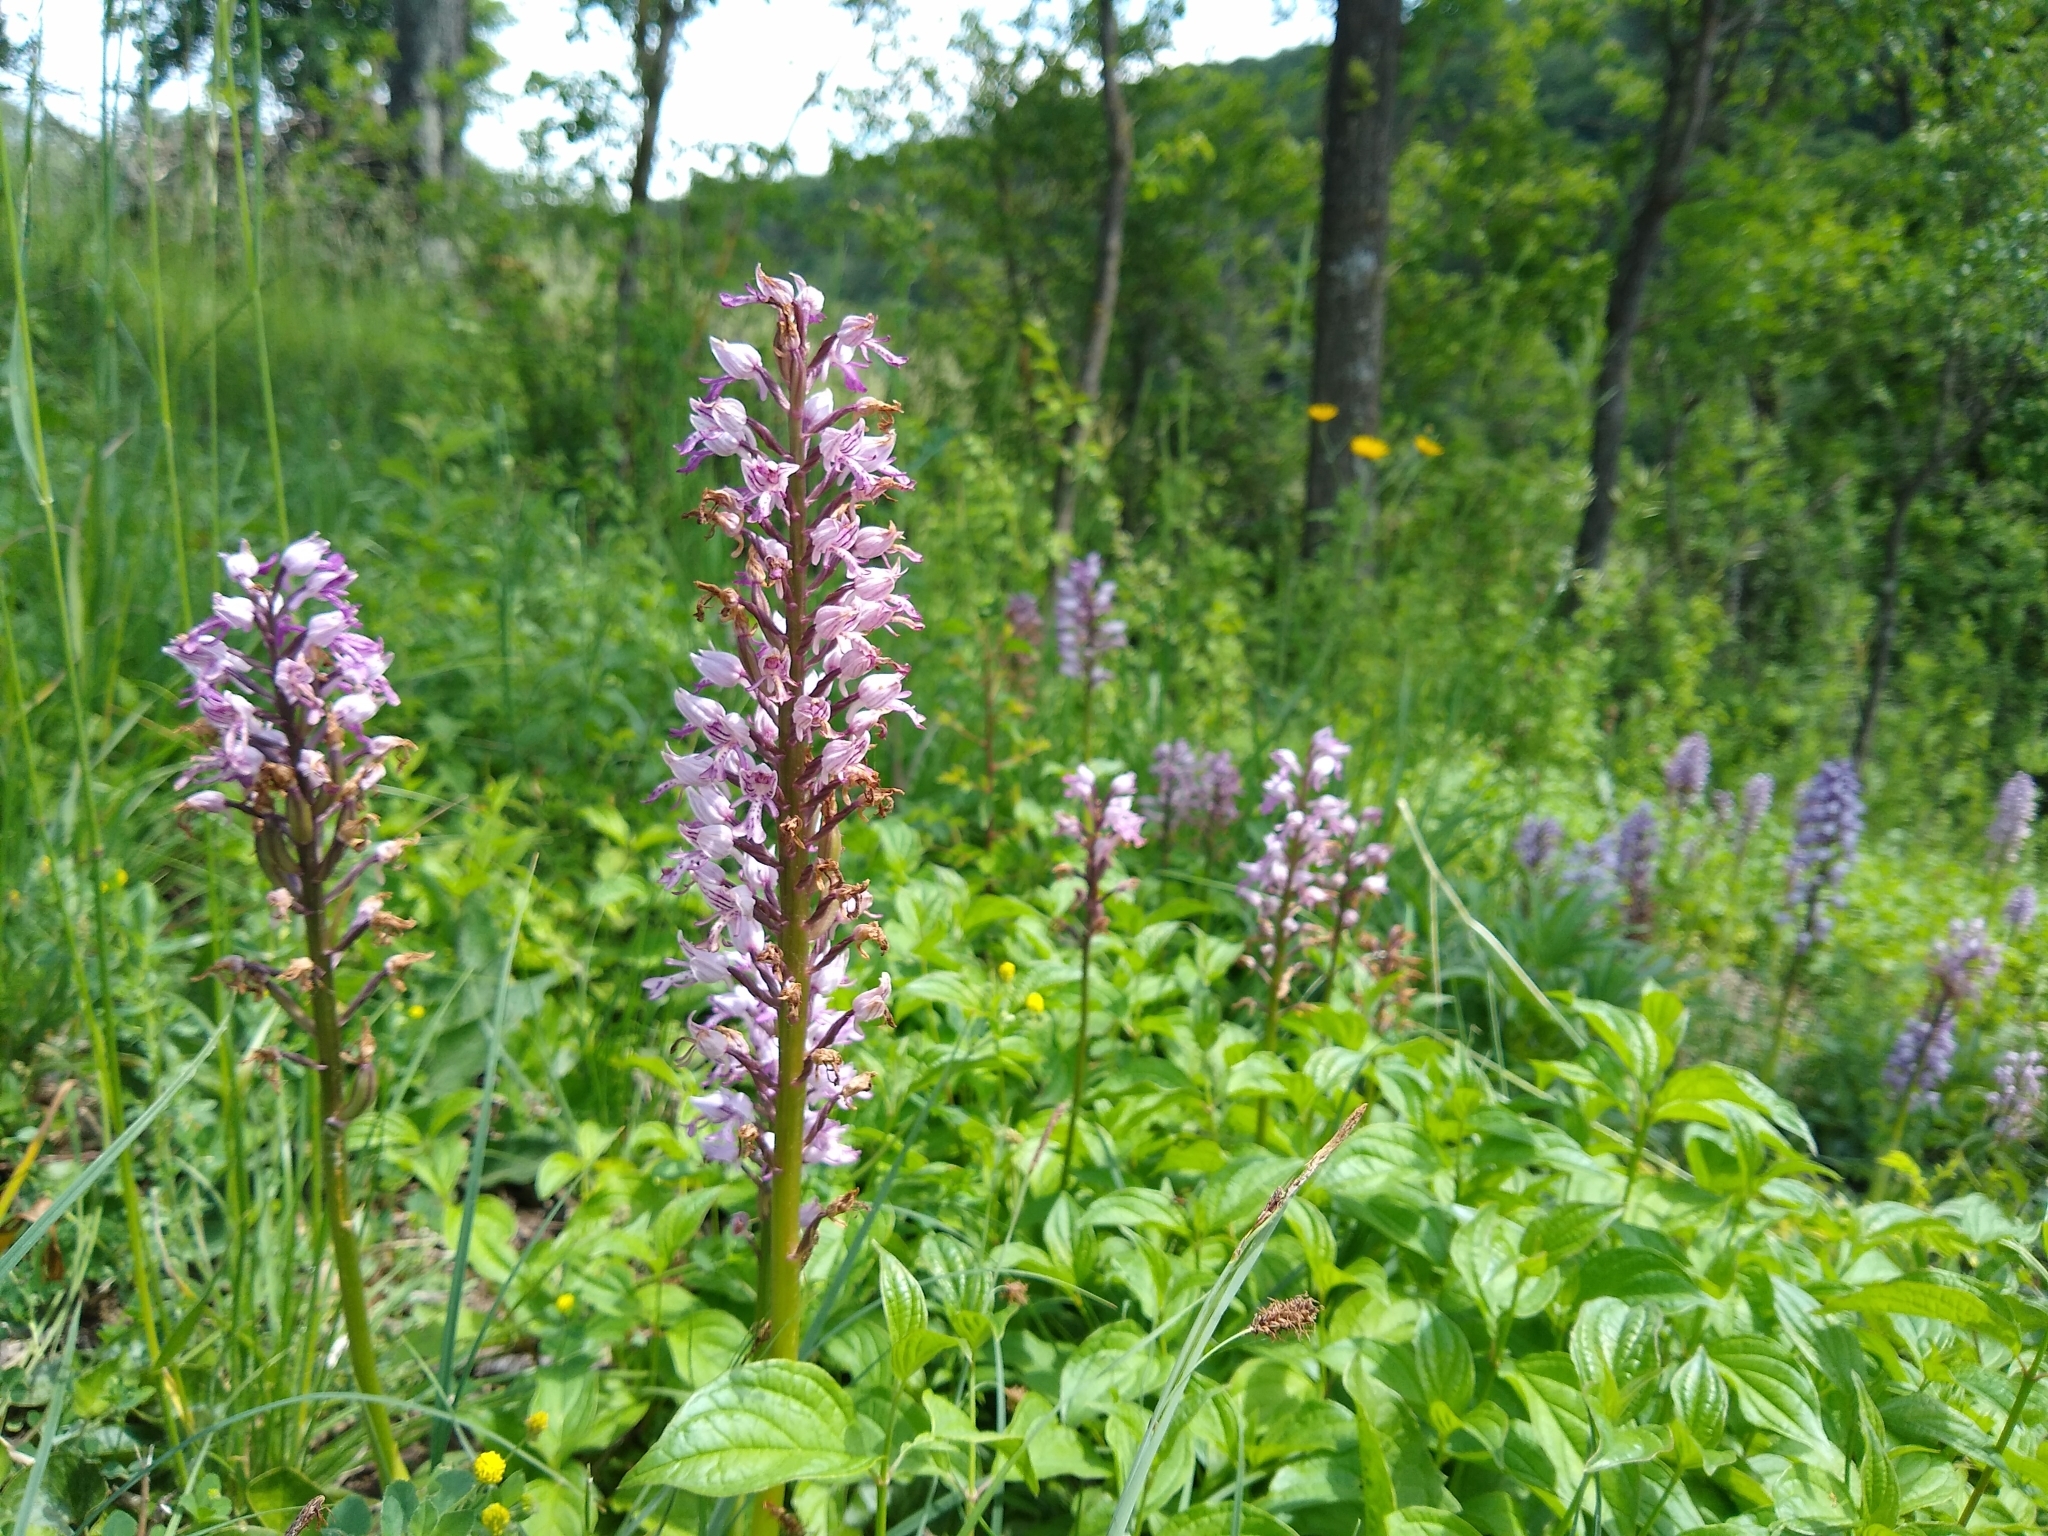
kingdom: Plantae
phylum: Tracheophyta
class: Liliopsida
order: Asparagales
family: Orchidaceae
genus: Orchis
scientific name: Orchis militaris
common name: Military orchid
